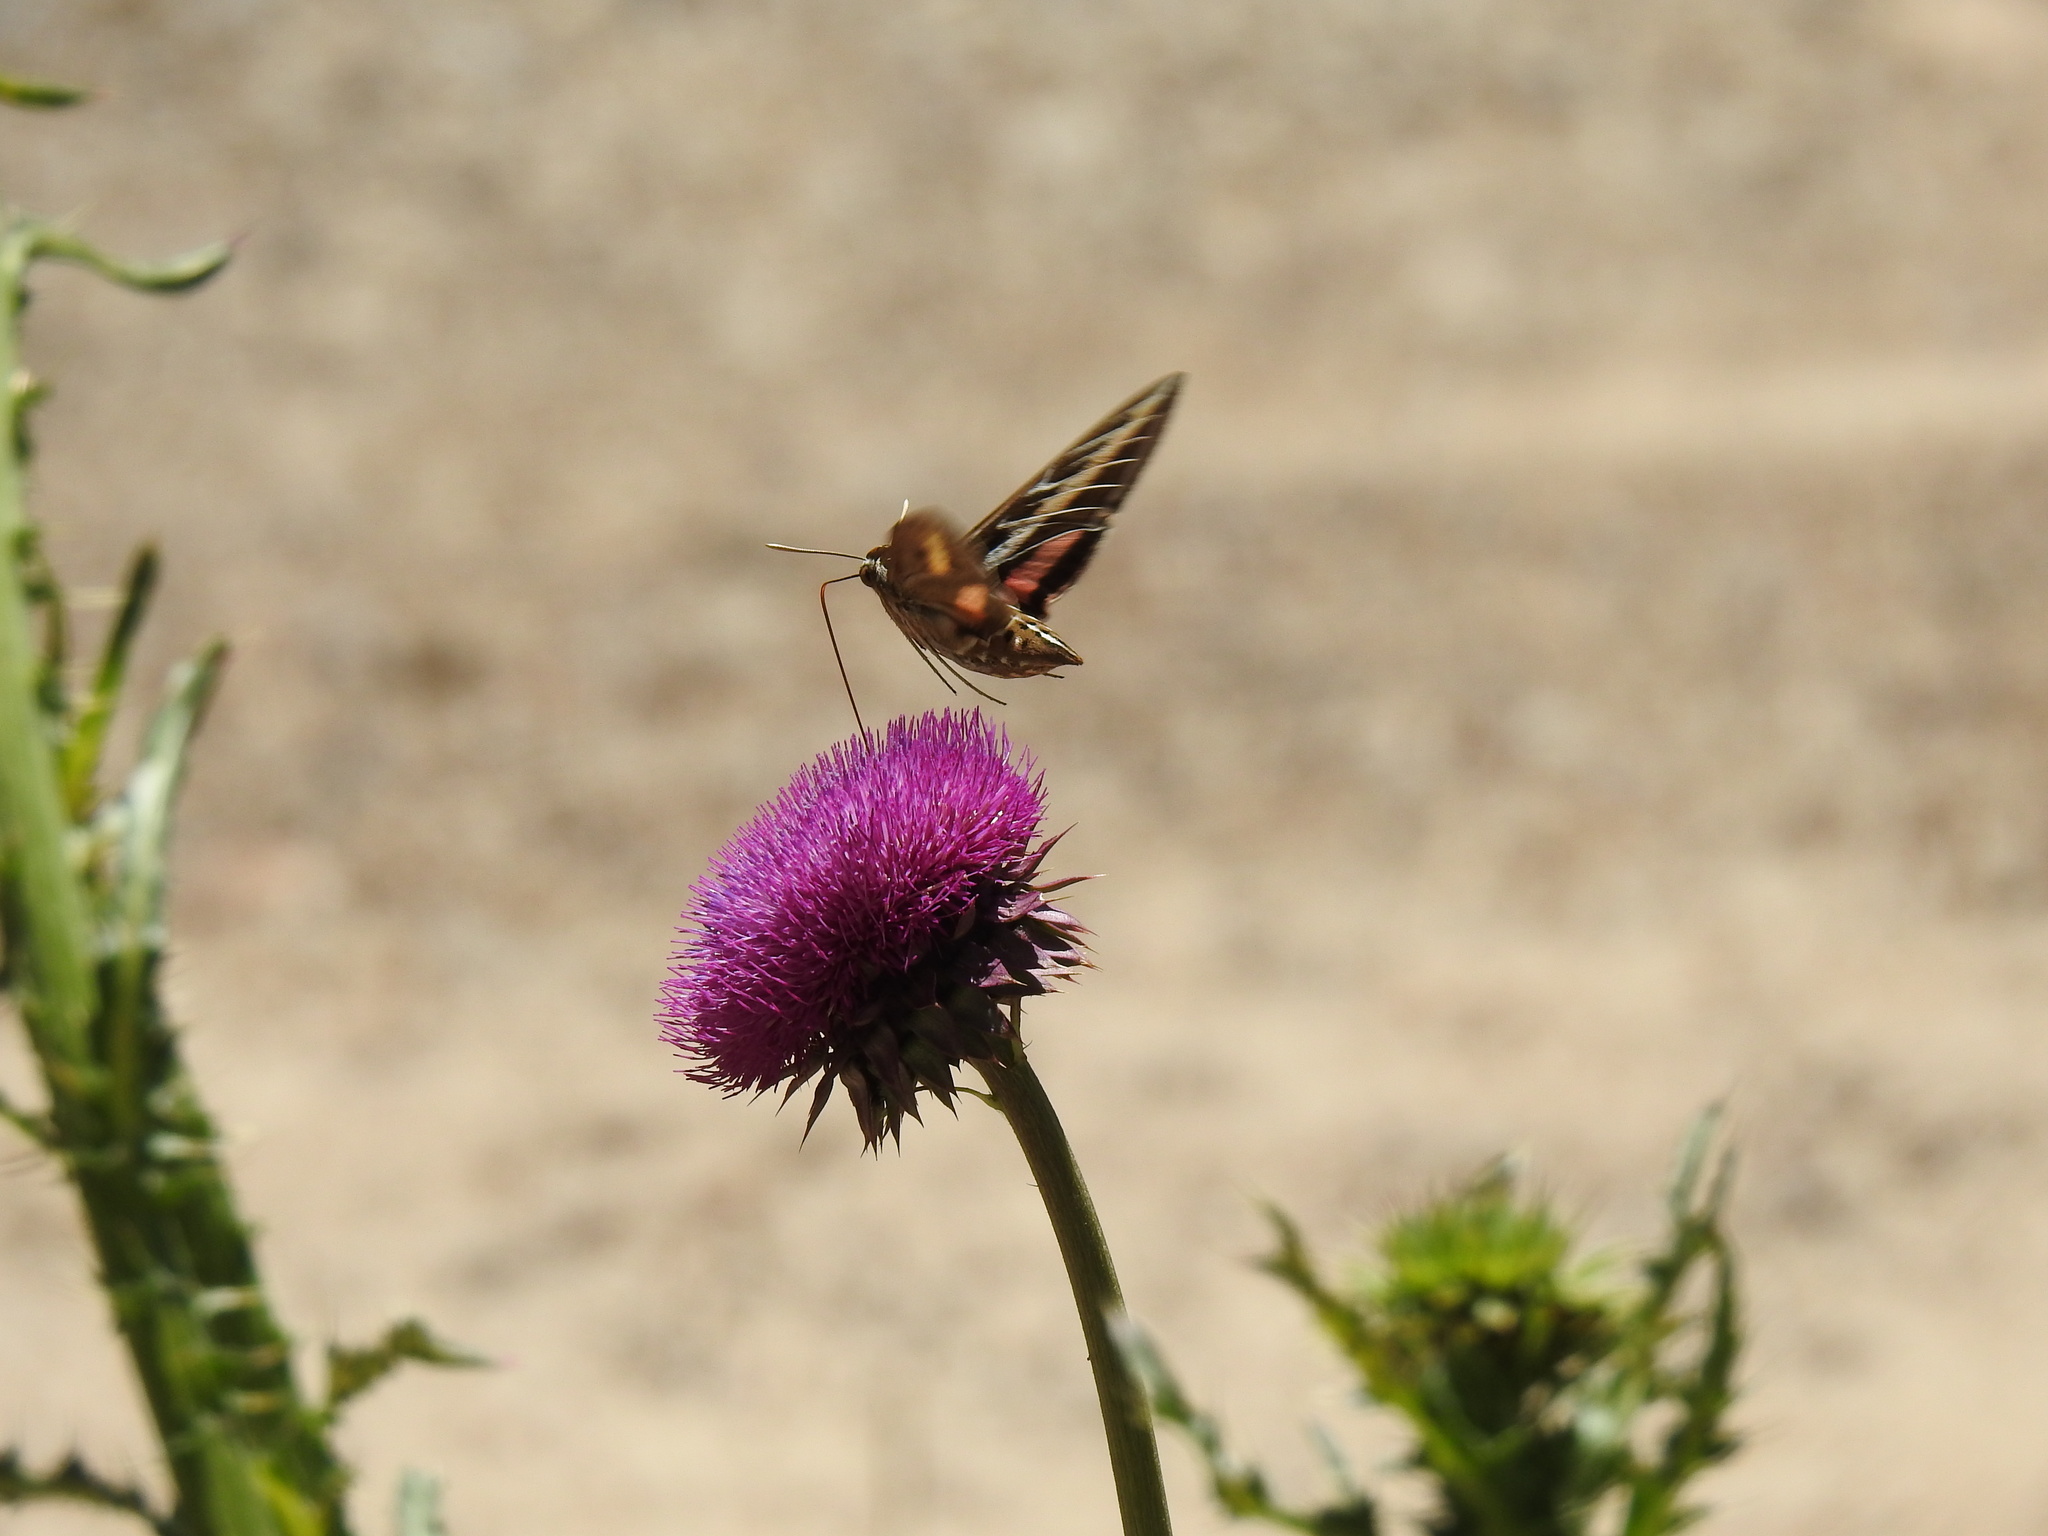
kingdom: Animalia
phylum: Arthropoda
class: Insecta
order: Lepidoptera
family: Sphingidae
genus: Hyles
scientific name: Hyles lineata
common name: White-lined sphinx
